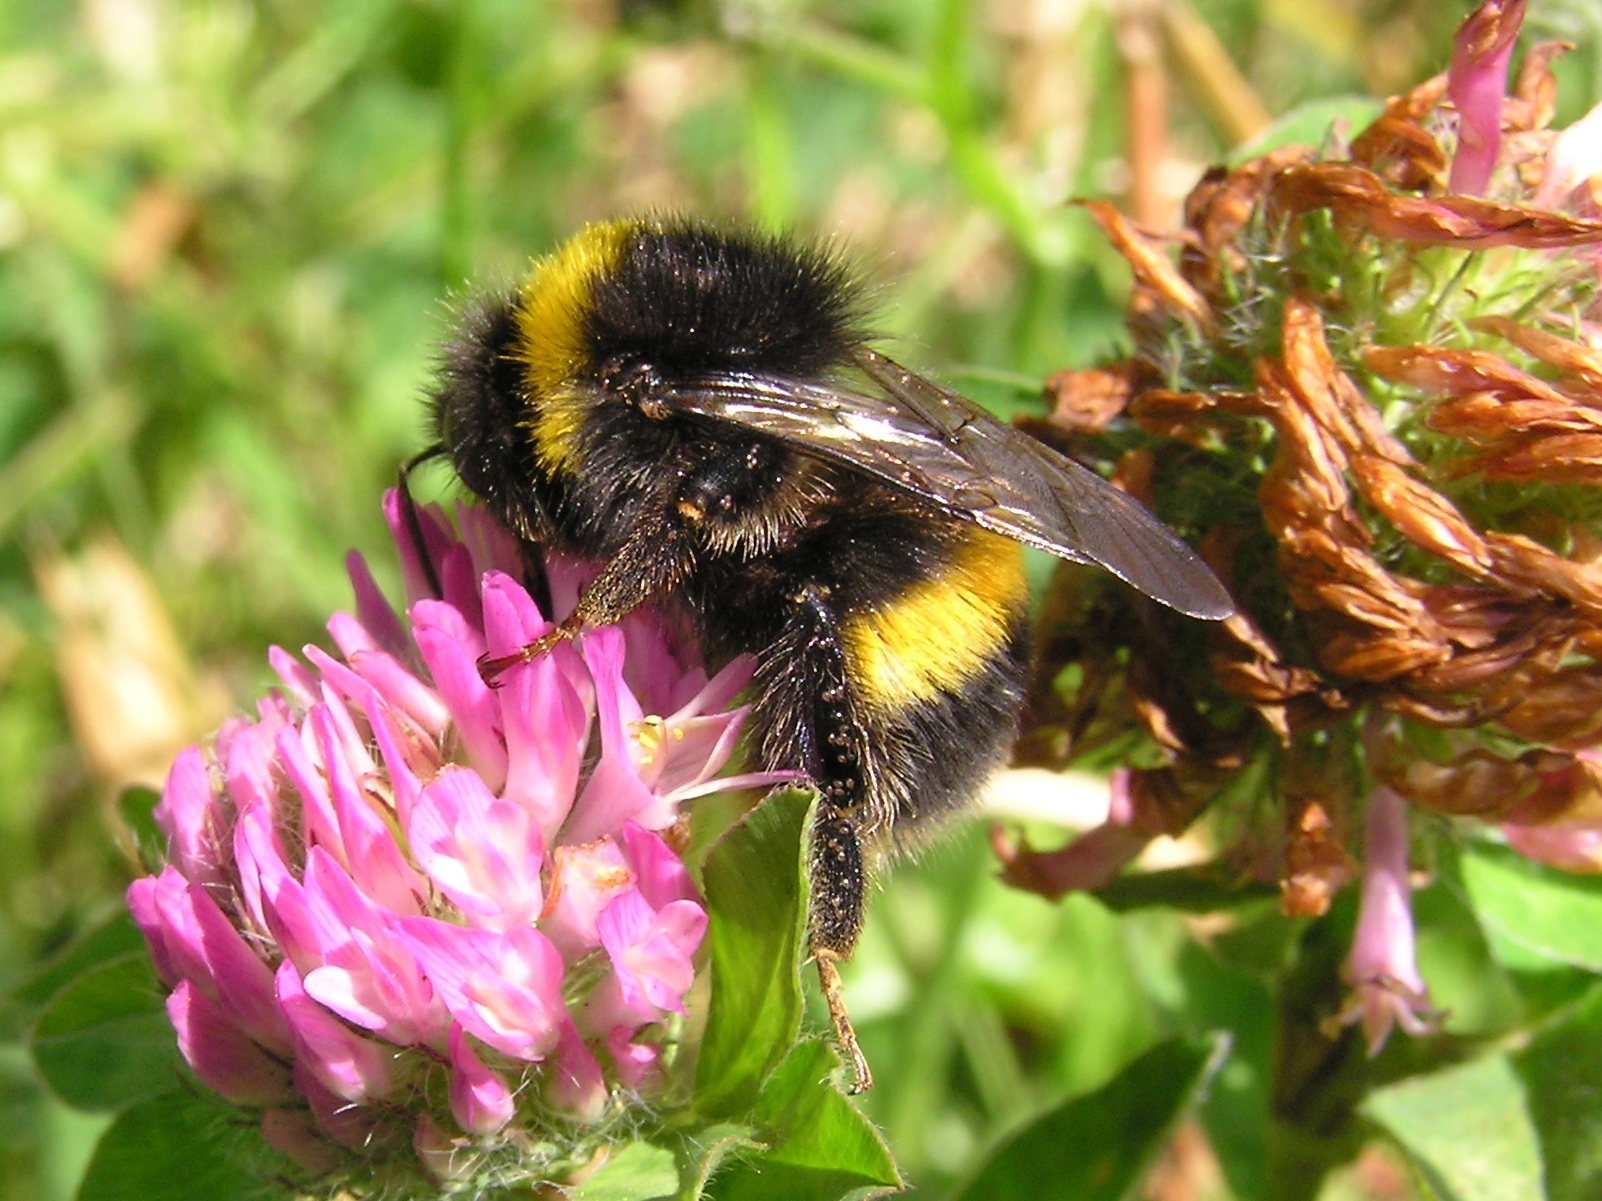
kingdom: Animalia
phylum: Arthropoda
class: Insecta
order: Hymenoptera
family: Apidae
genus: Bombus
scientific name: Bombus terrestris
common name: Buff-tailed bumblebee
